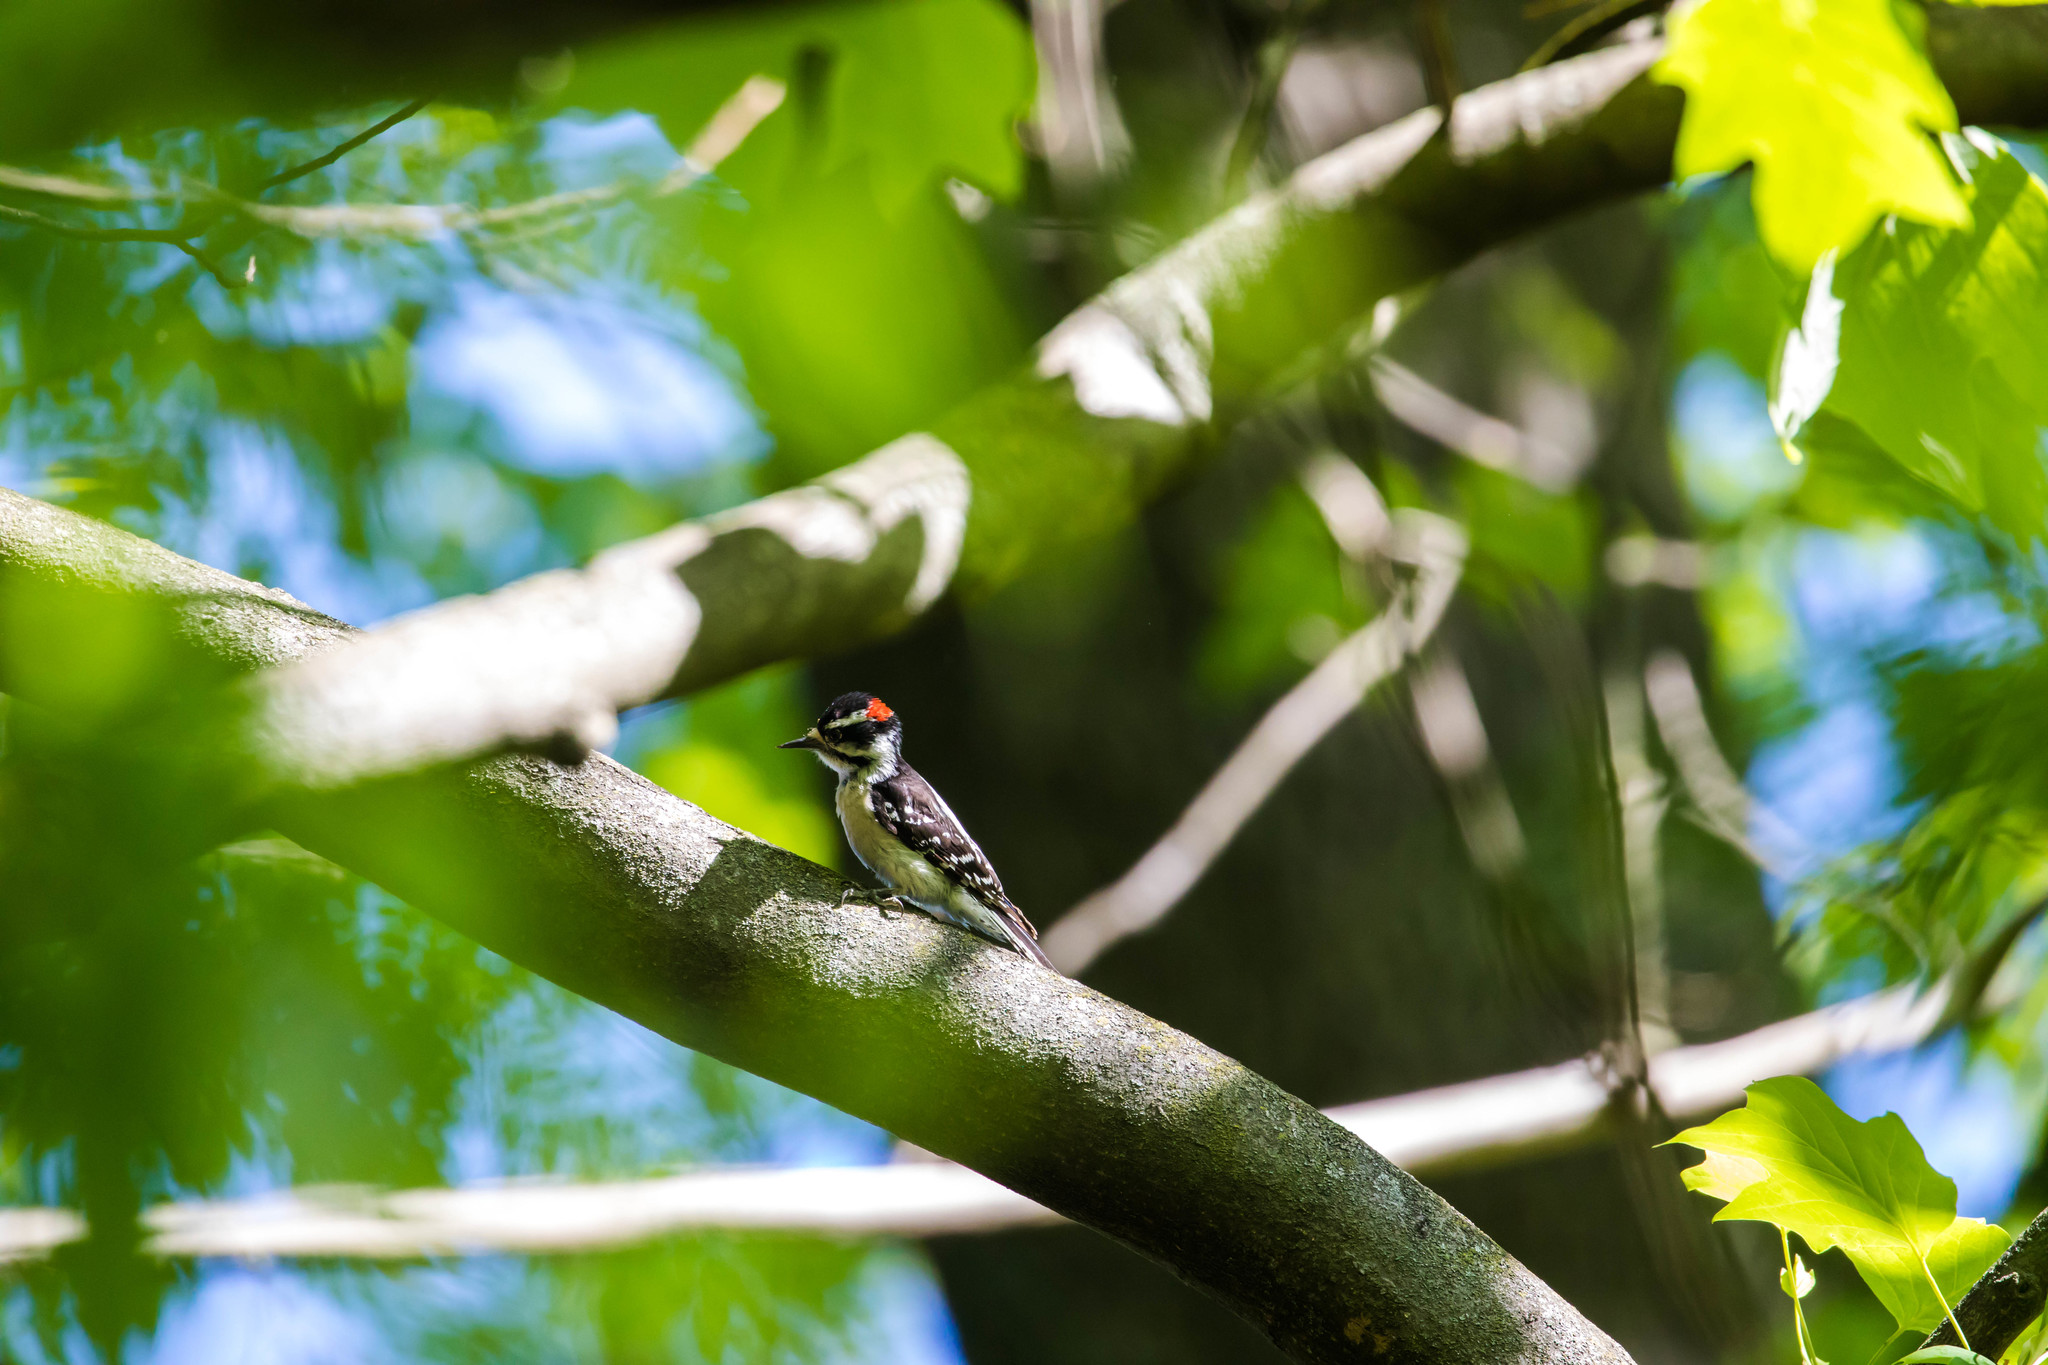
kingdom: Animalia
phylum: Chordata
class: Aves
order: Piciformes
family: Picidae
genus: Dryobates
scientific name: Dryobates pubescens
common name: Downy woodpecker
